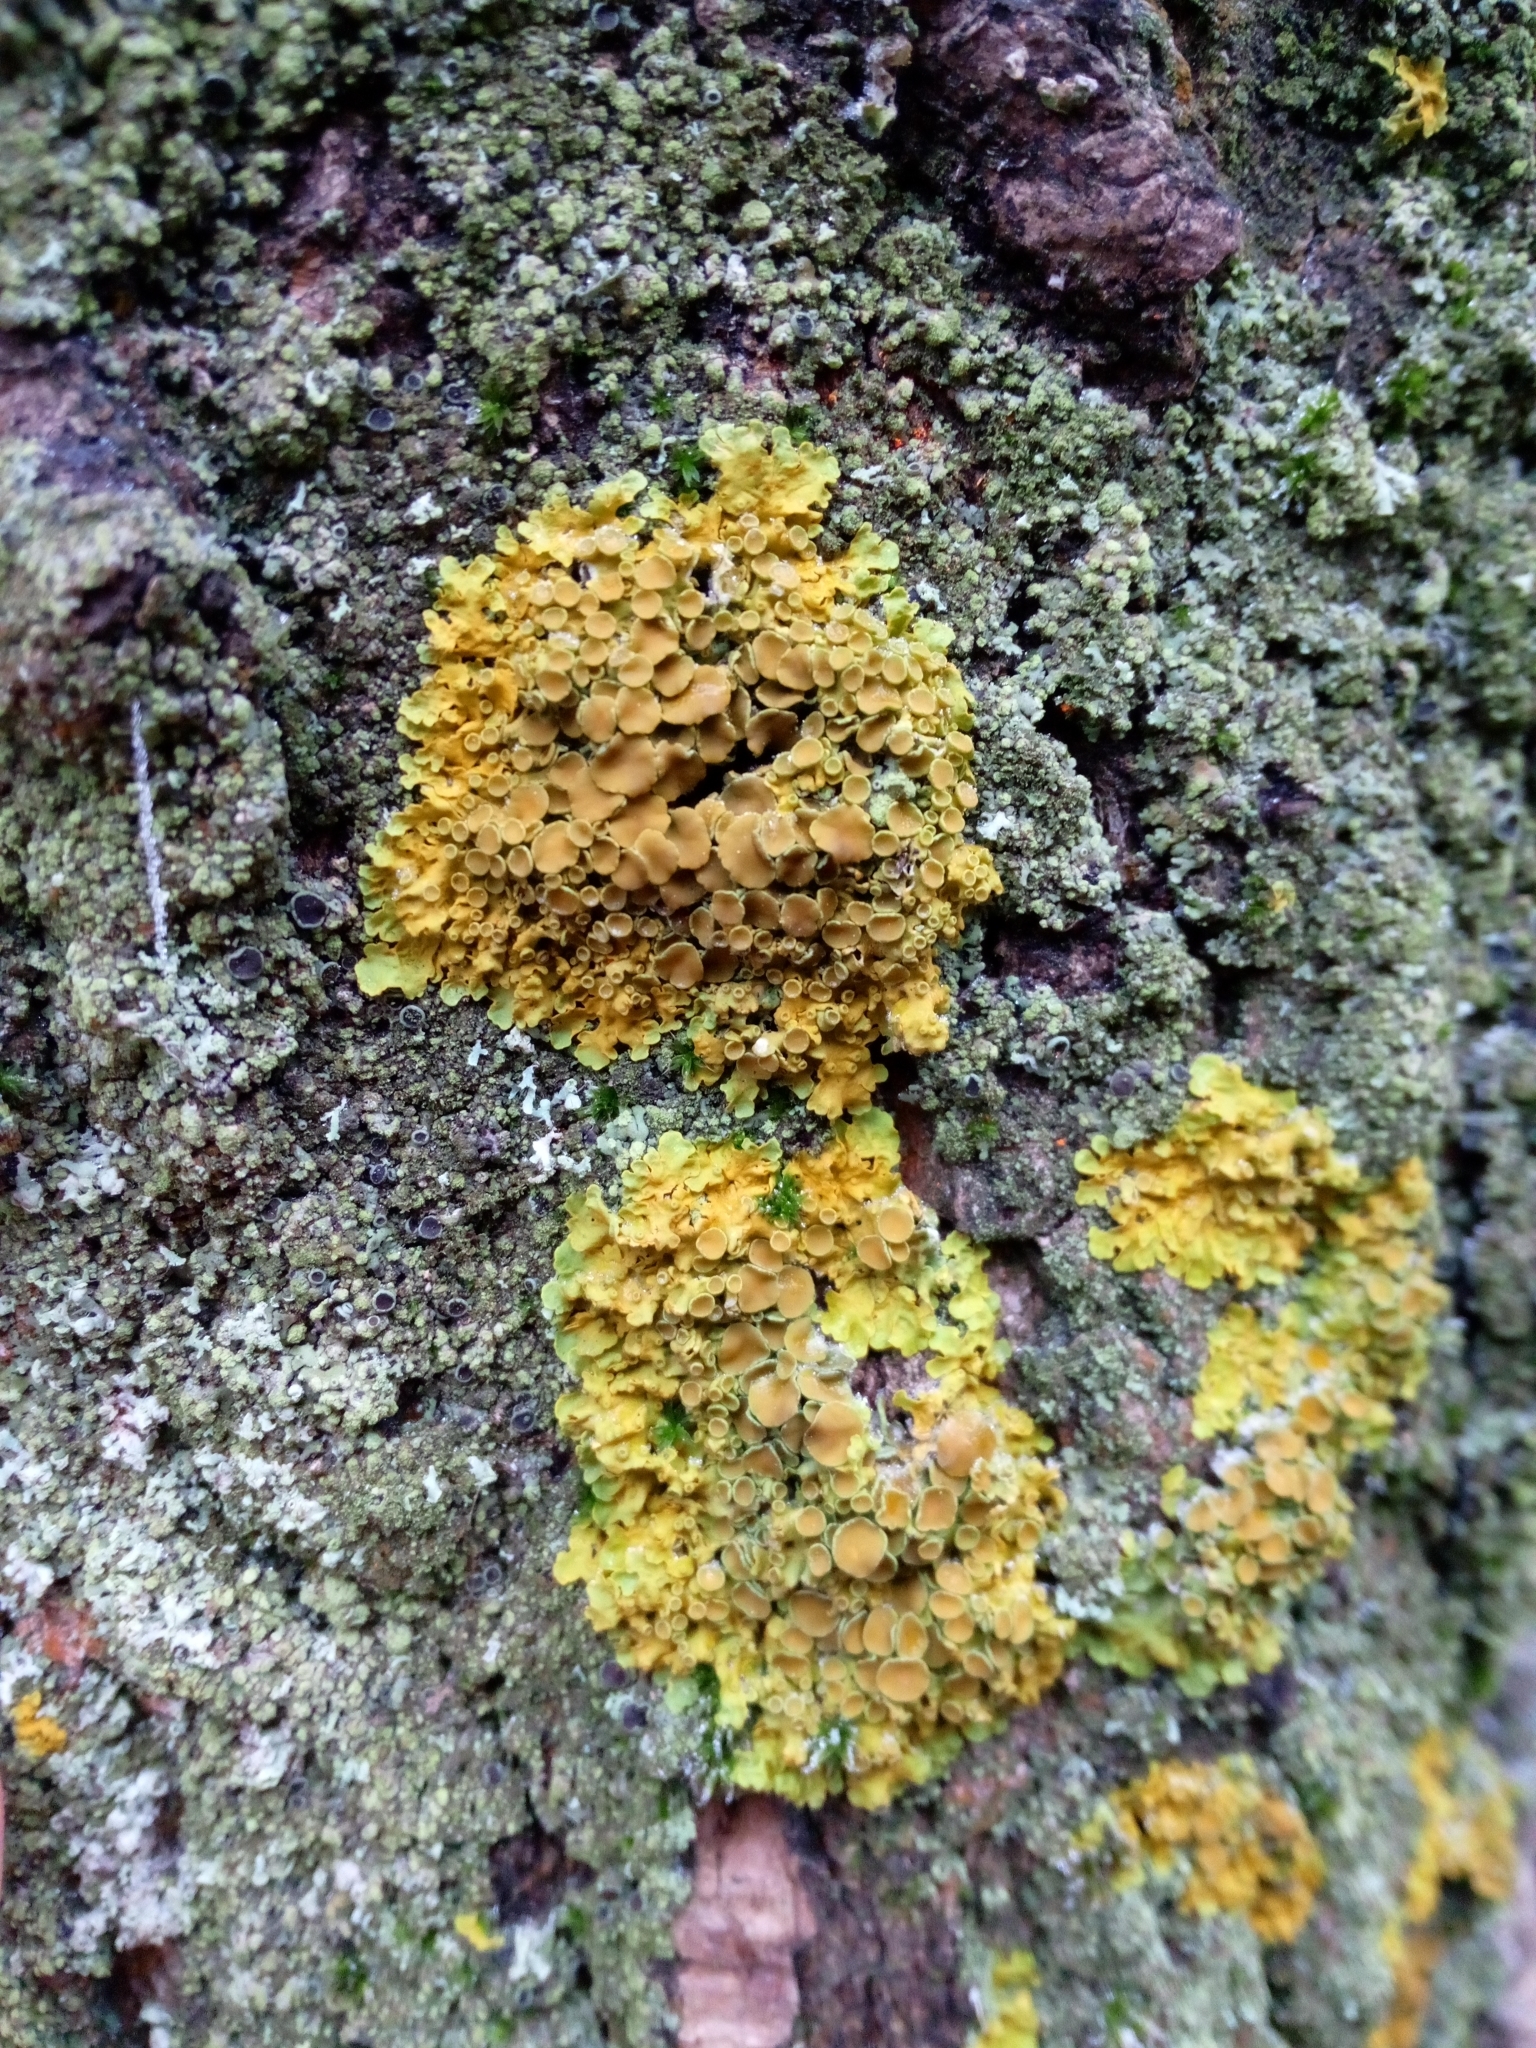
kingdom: Fungi
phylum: Ascomycota
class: Lecanoromycetes
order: Teloschistales
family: Teloschistaceae
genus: Xanthoria
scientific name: Xanthoria parietina
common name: Common orange lichen
